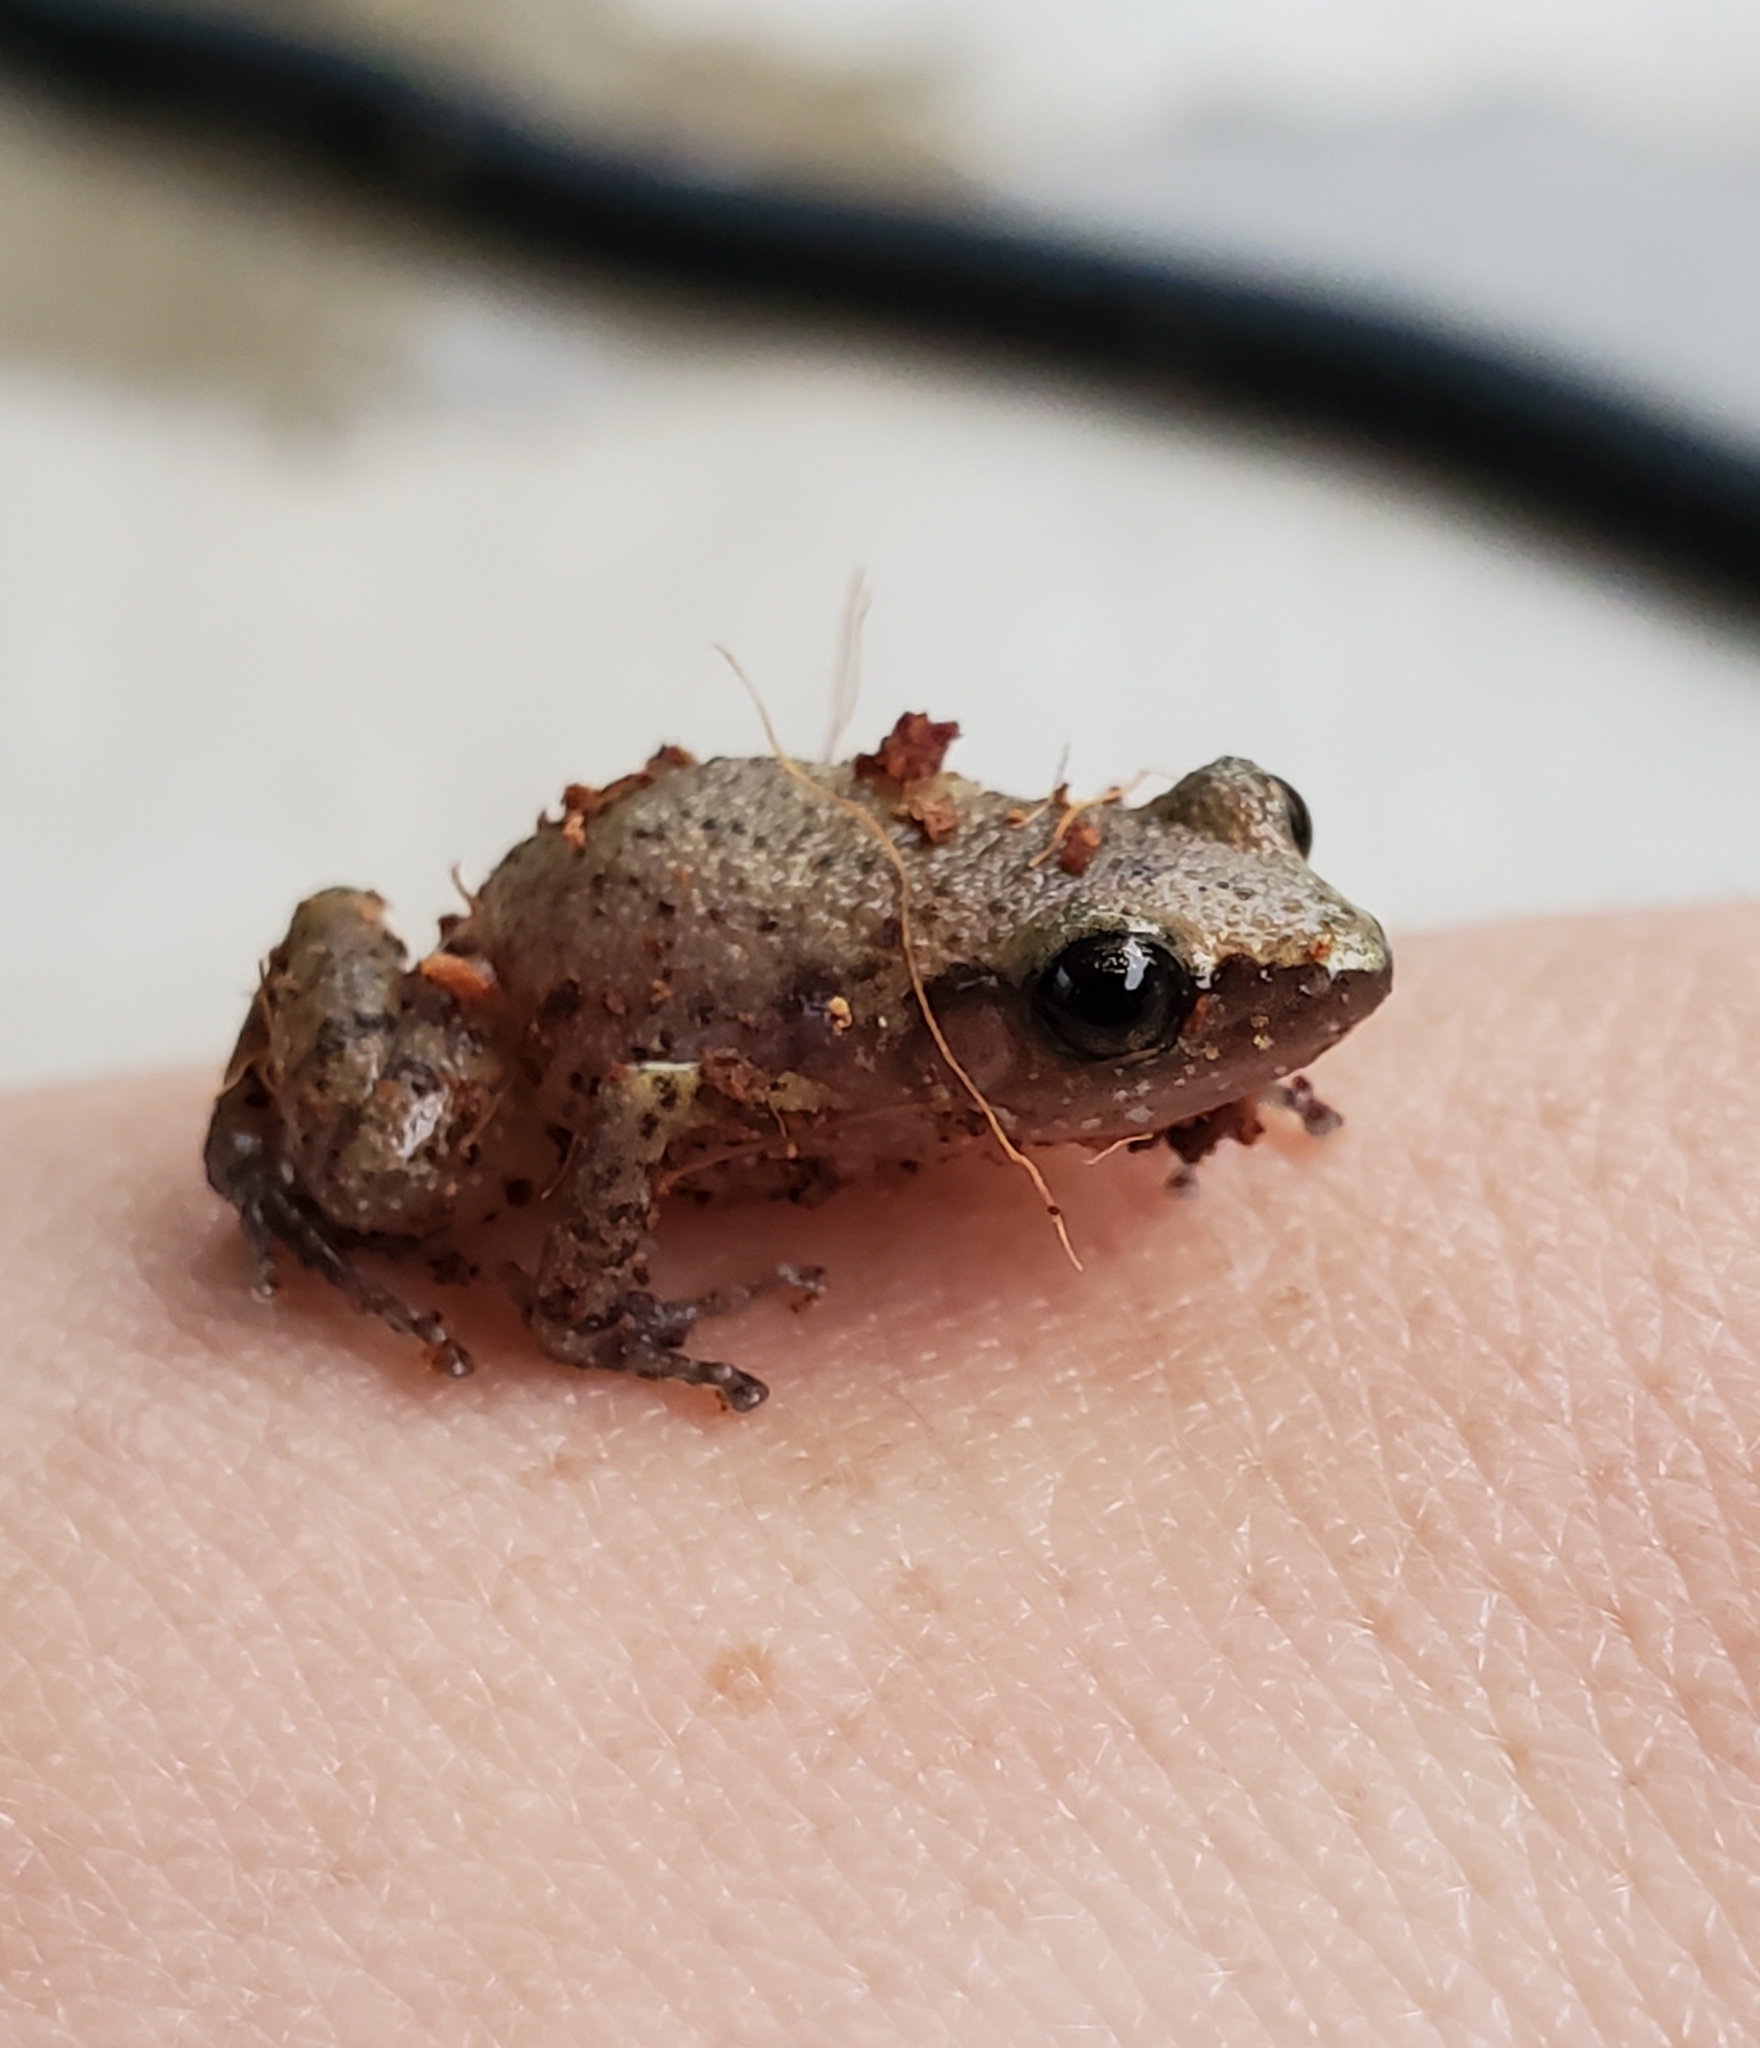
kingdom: Animalia
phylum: Chordata
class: Amphibia
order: Anura
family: Eleutherodactylidae
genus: Eleutherodactylus
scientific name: Eleutherodactylus campi
